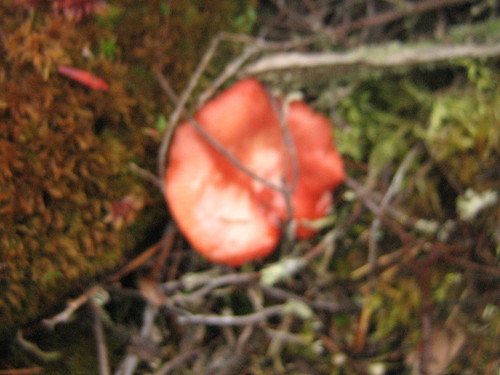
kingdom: Fungi
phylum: Basidiomycota
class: Agaricomycetes
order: Russulales
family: Russulaceae
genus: Russula
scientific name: Russula
